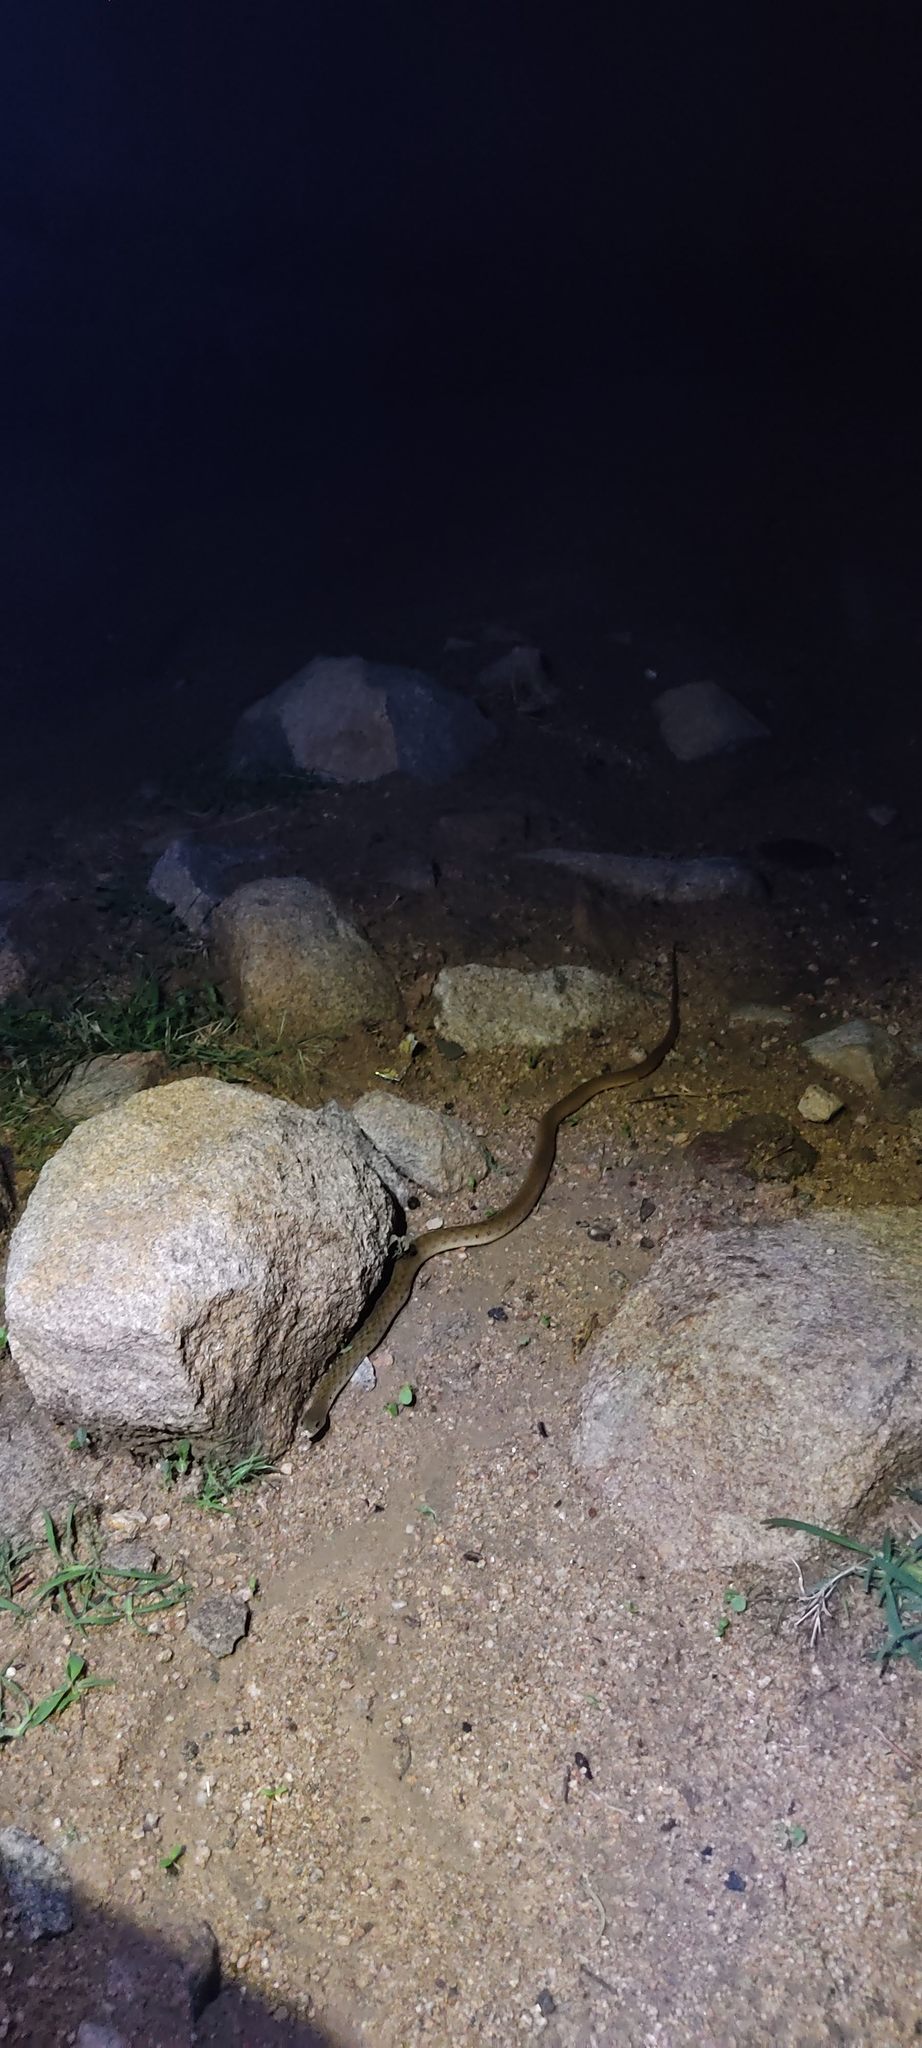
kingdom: Animalia
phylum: Chordata
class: Squamata
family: Colubridae
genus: Fowlea
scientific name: Fowlea piscator
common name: Asiatic water snake
